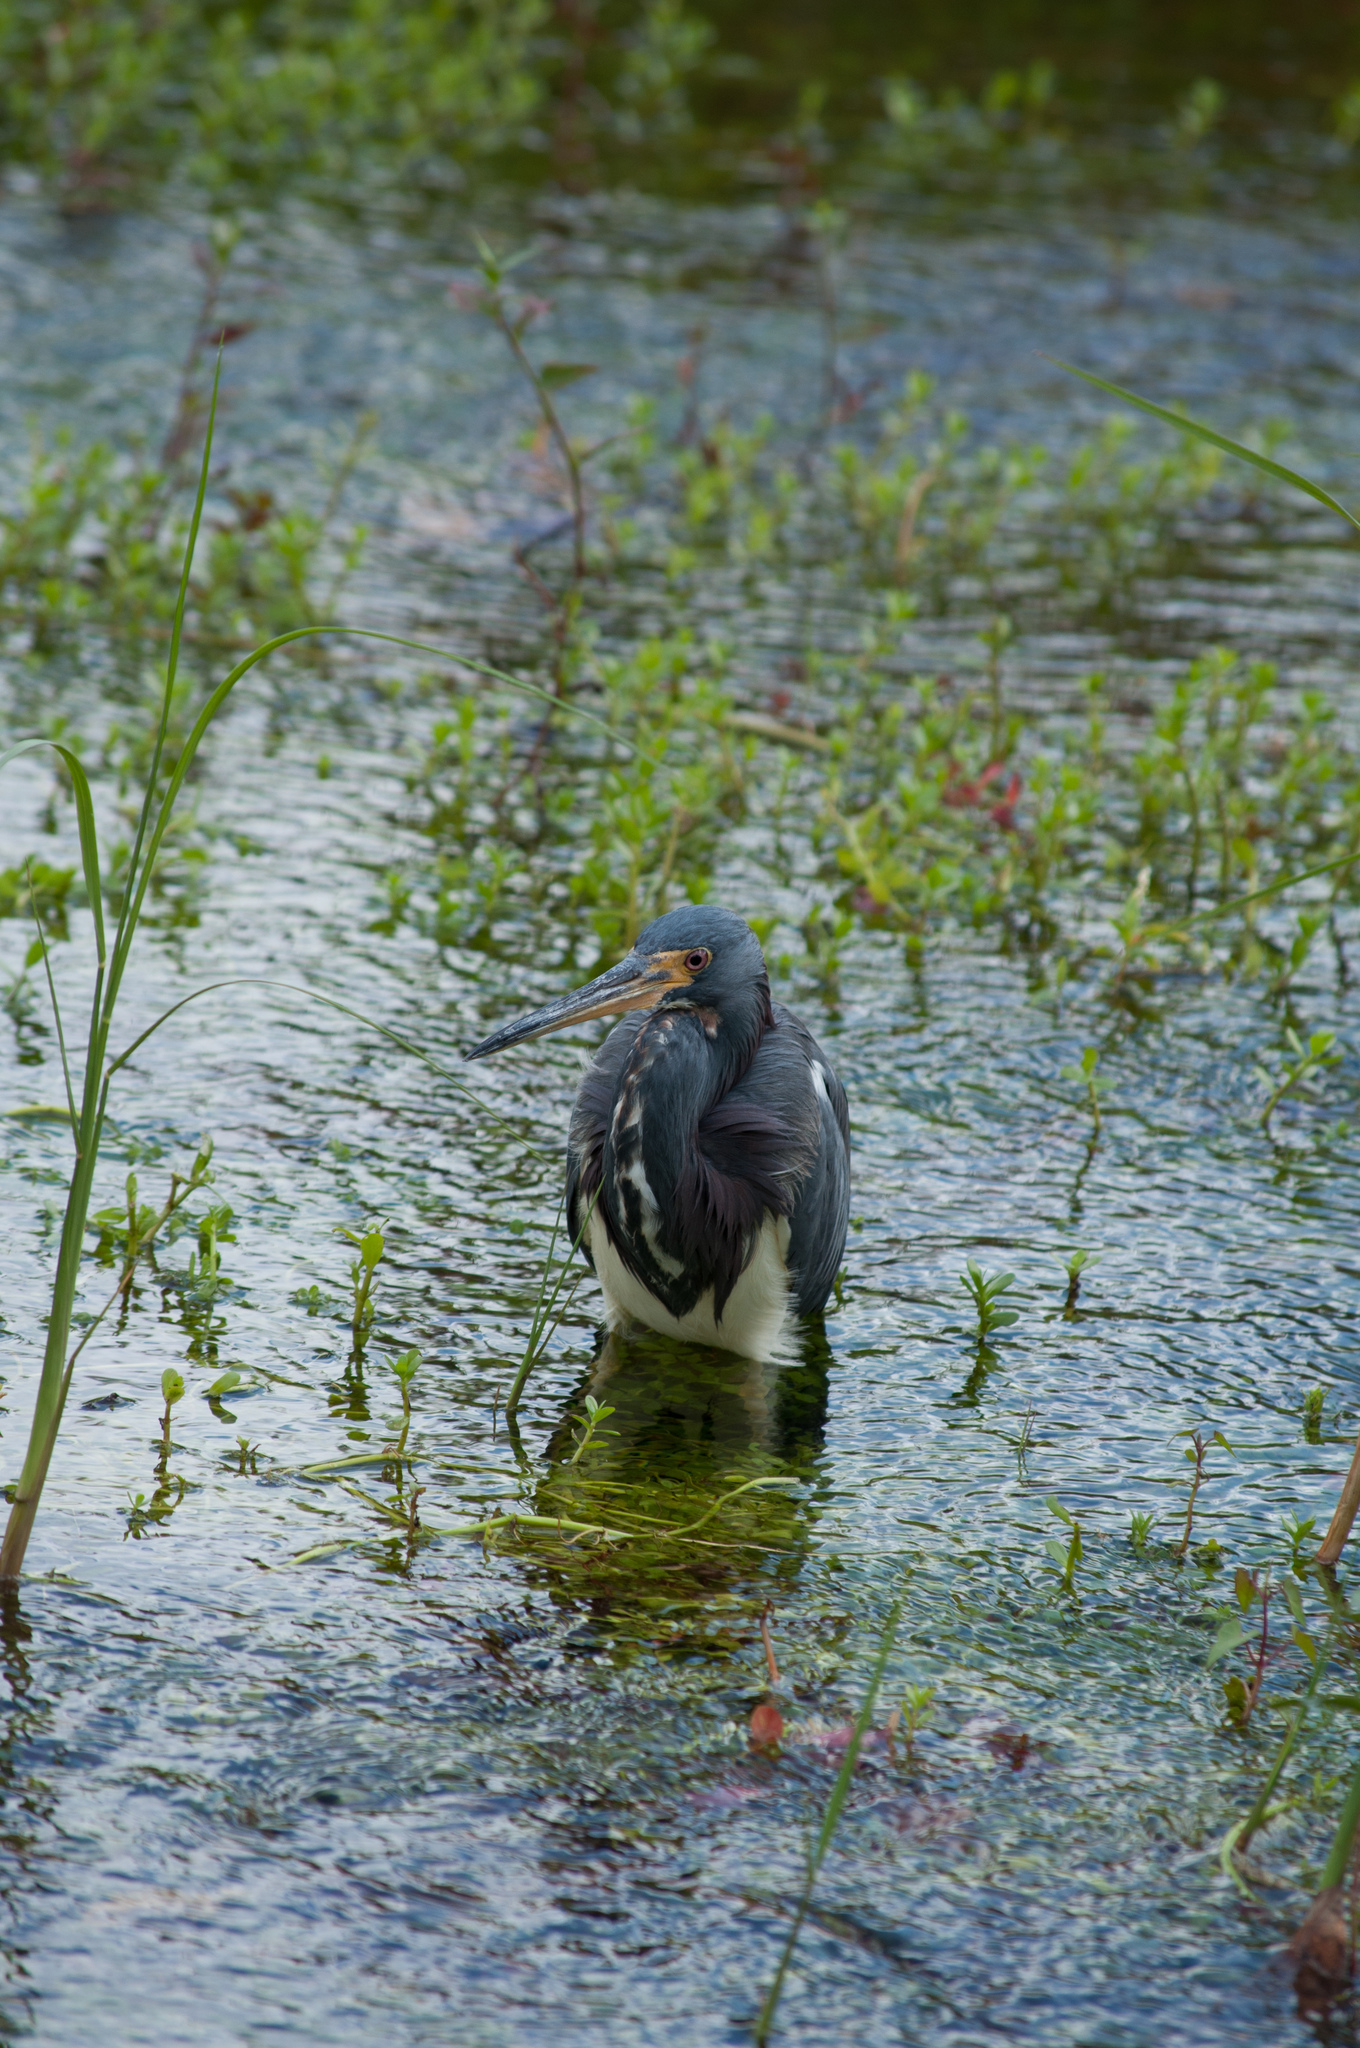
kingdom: Animalia
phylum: Chordata
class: Aves
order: Pelecaniformes
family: Ardeidae
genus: Egretta
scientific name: Egretta tricolor
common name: Tricolored heron
